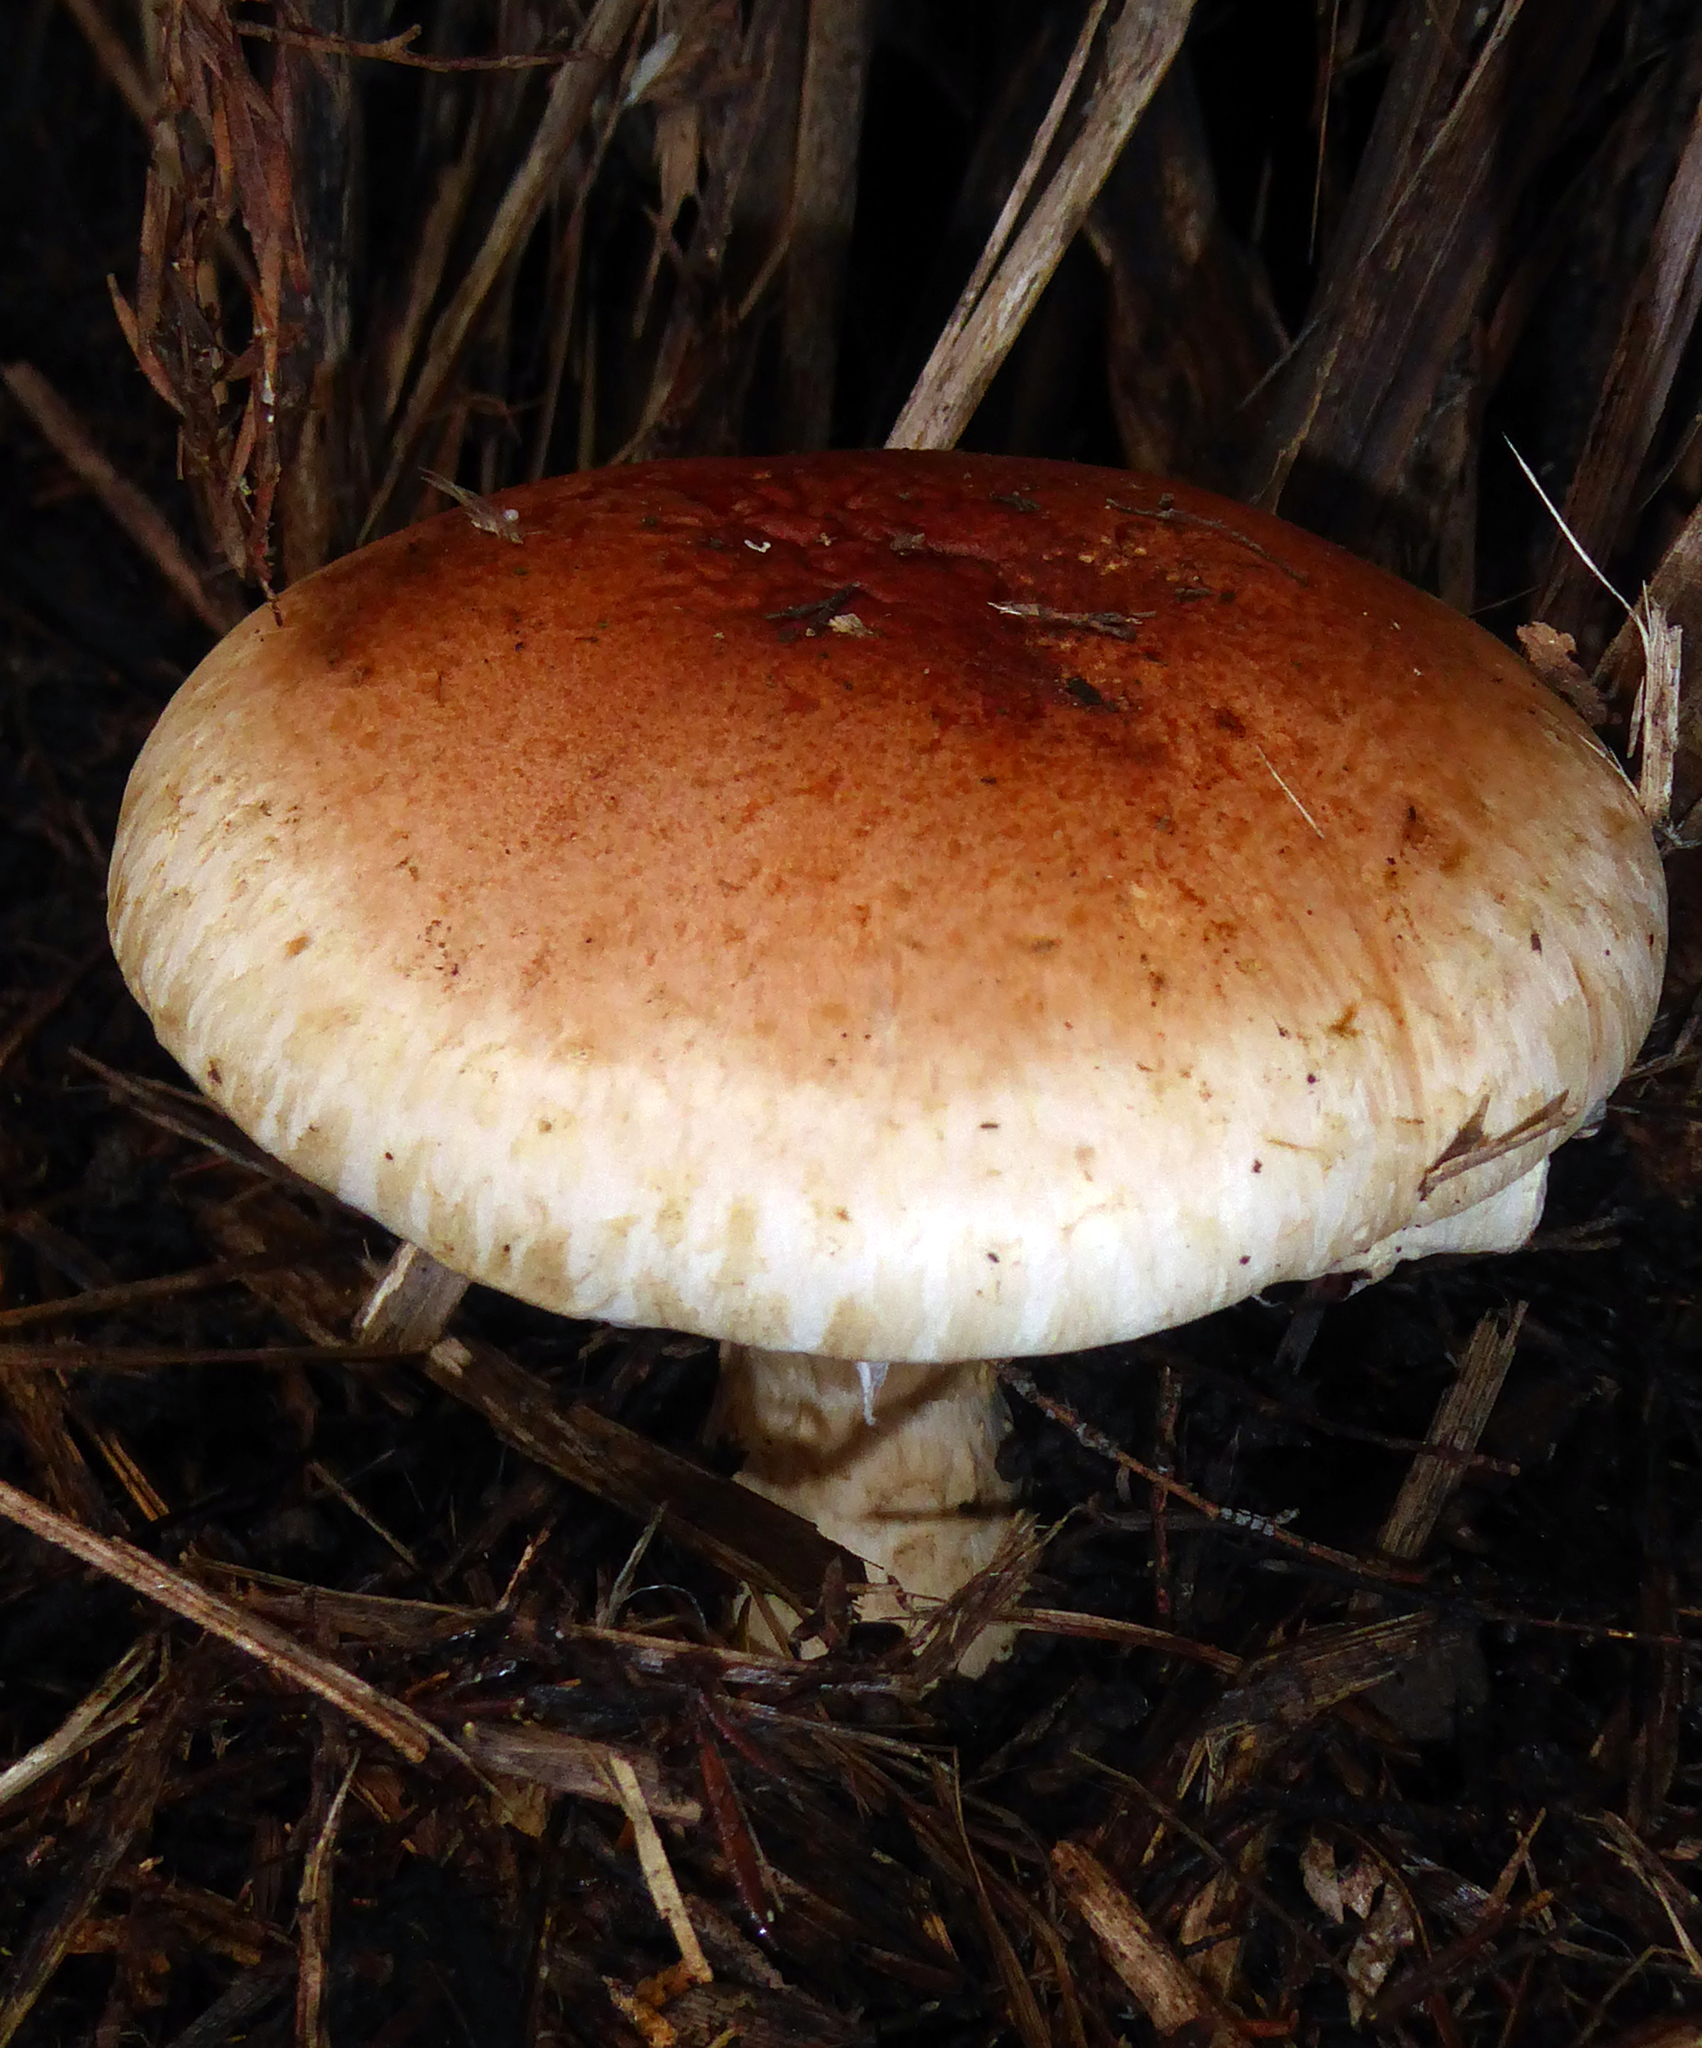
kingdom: Fungi
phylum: Basidiomycota
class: Agaricomycetes
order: Agaricales
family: Hymenogastraceae
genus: Hebeloma
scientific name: Hebeloma victoriense
